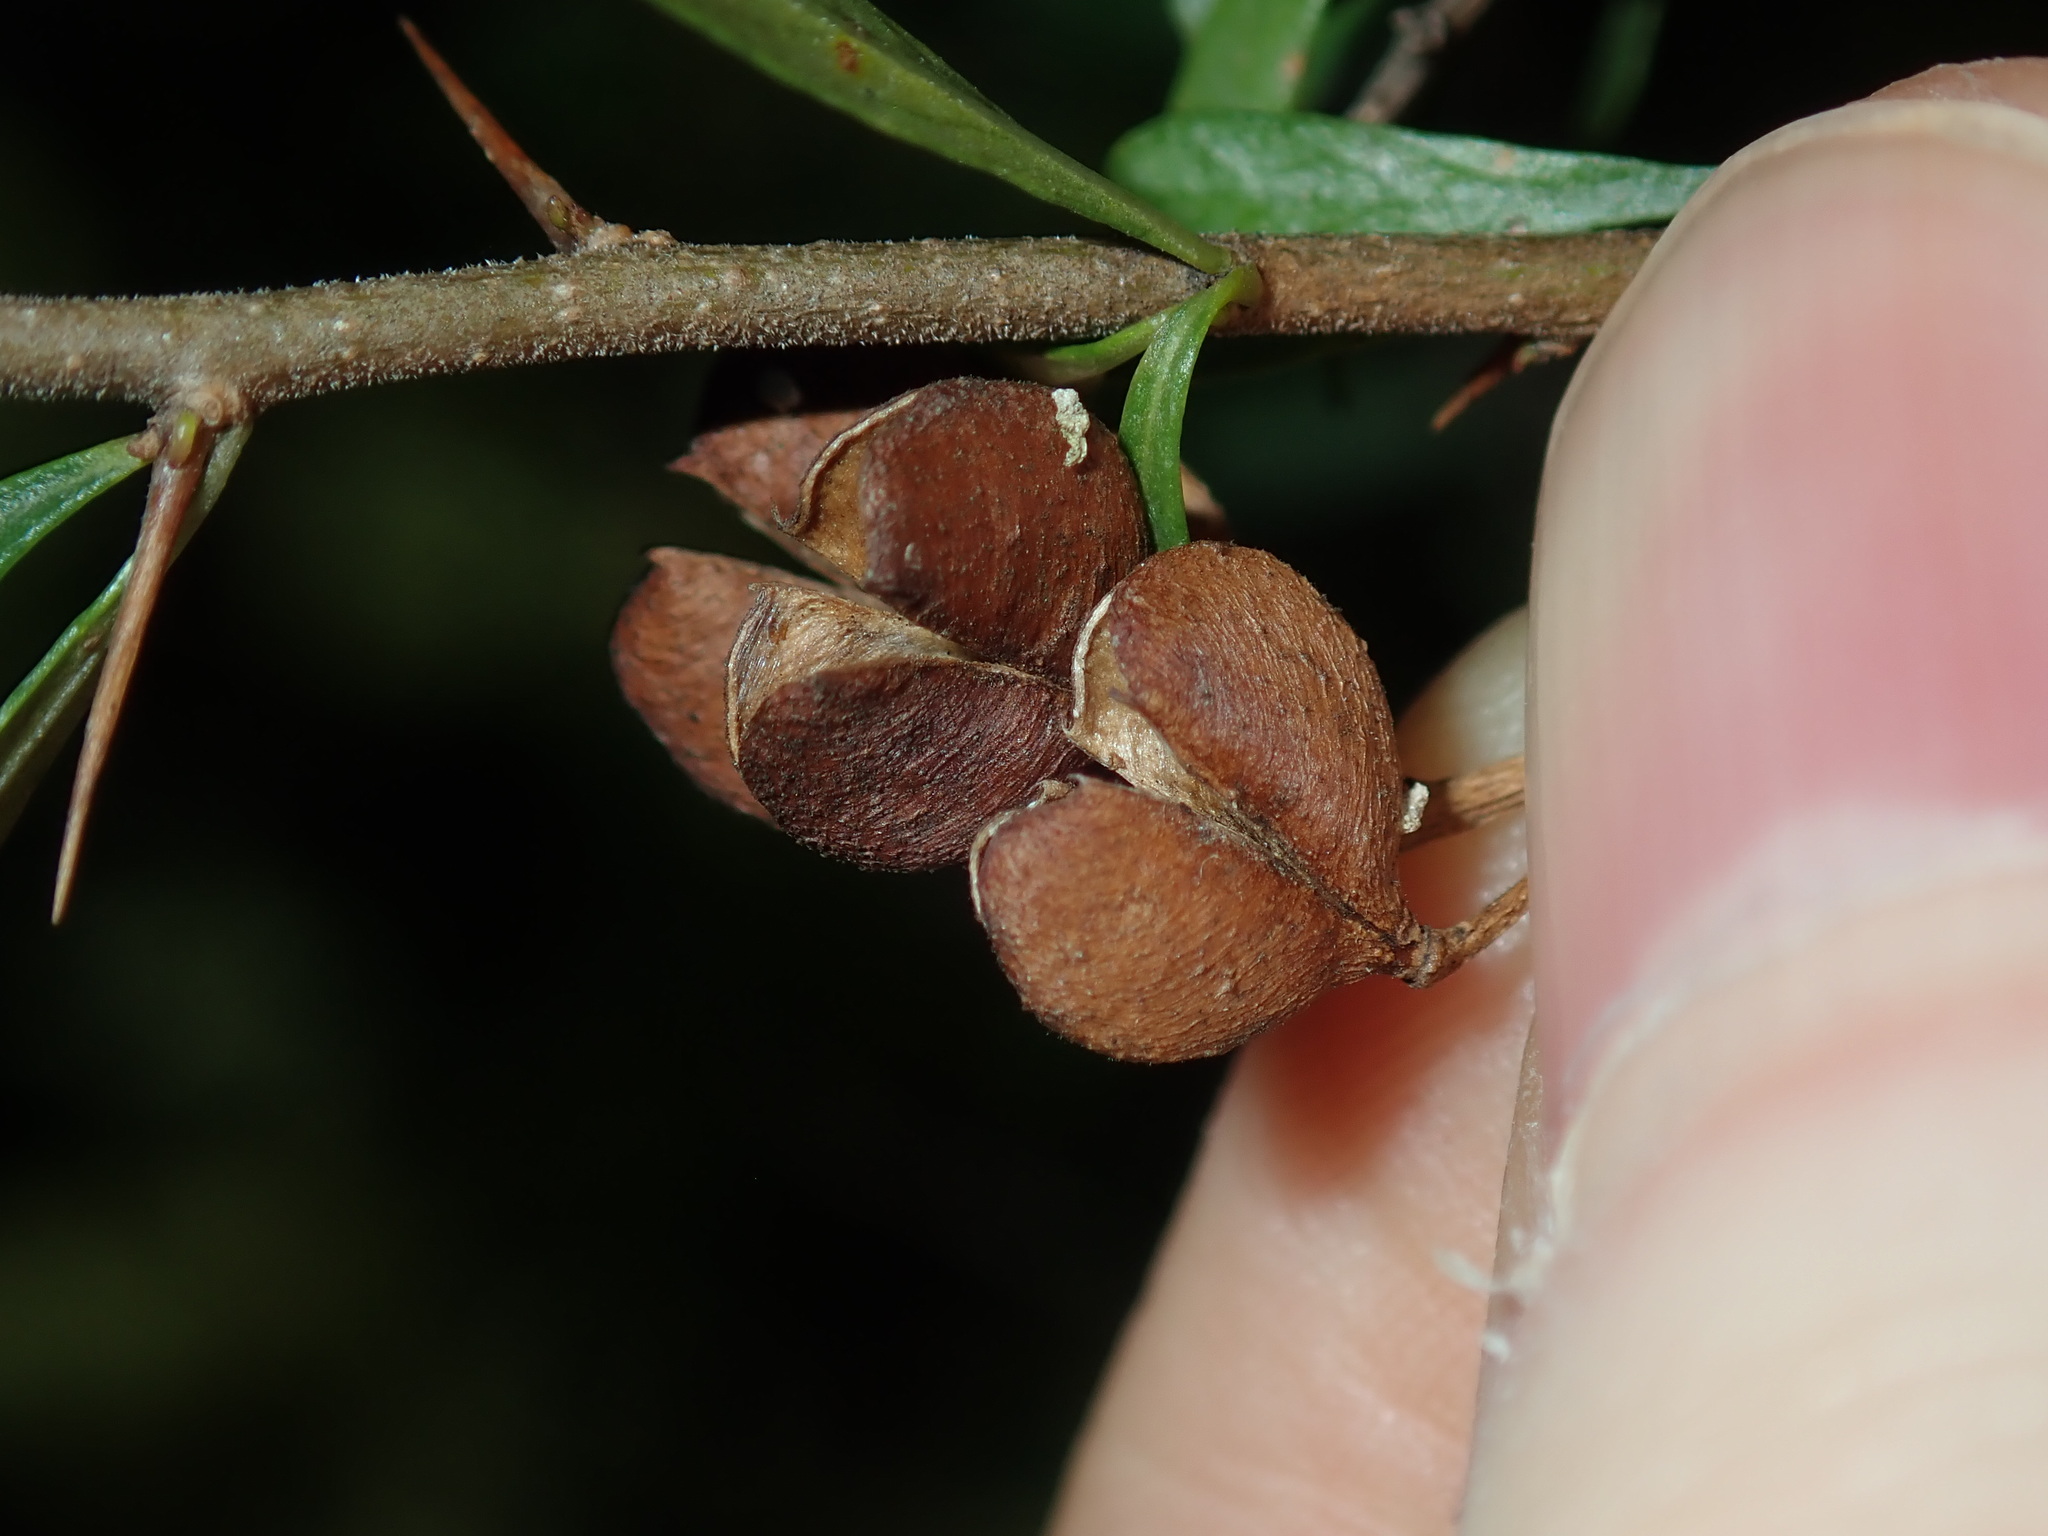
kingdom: Plantae
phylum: Tracheophyta
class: Magnoliopsida
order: Apiales
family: Pittosporaceae
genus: Bursaria
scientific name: Bursaria spinosa
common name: Australian blackthorn
